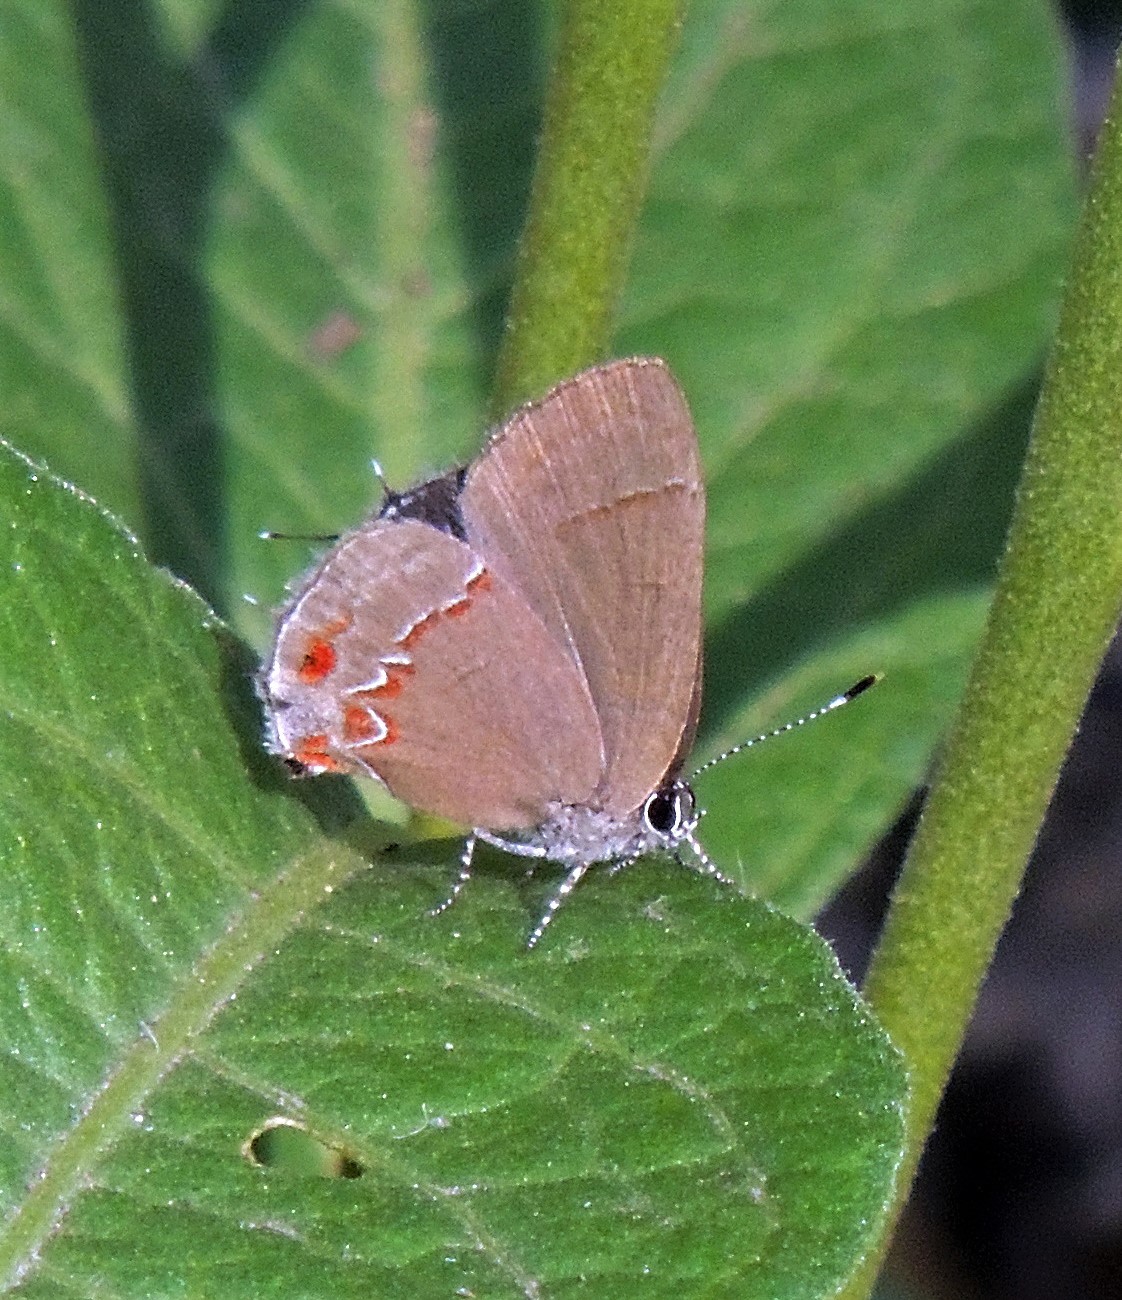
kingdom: Animalia
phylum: Arthropoda
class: Insecta
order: Lepidoptera
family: Lycaenidae
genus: Calycopis
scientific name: Calycopis caulonia
